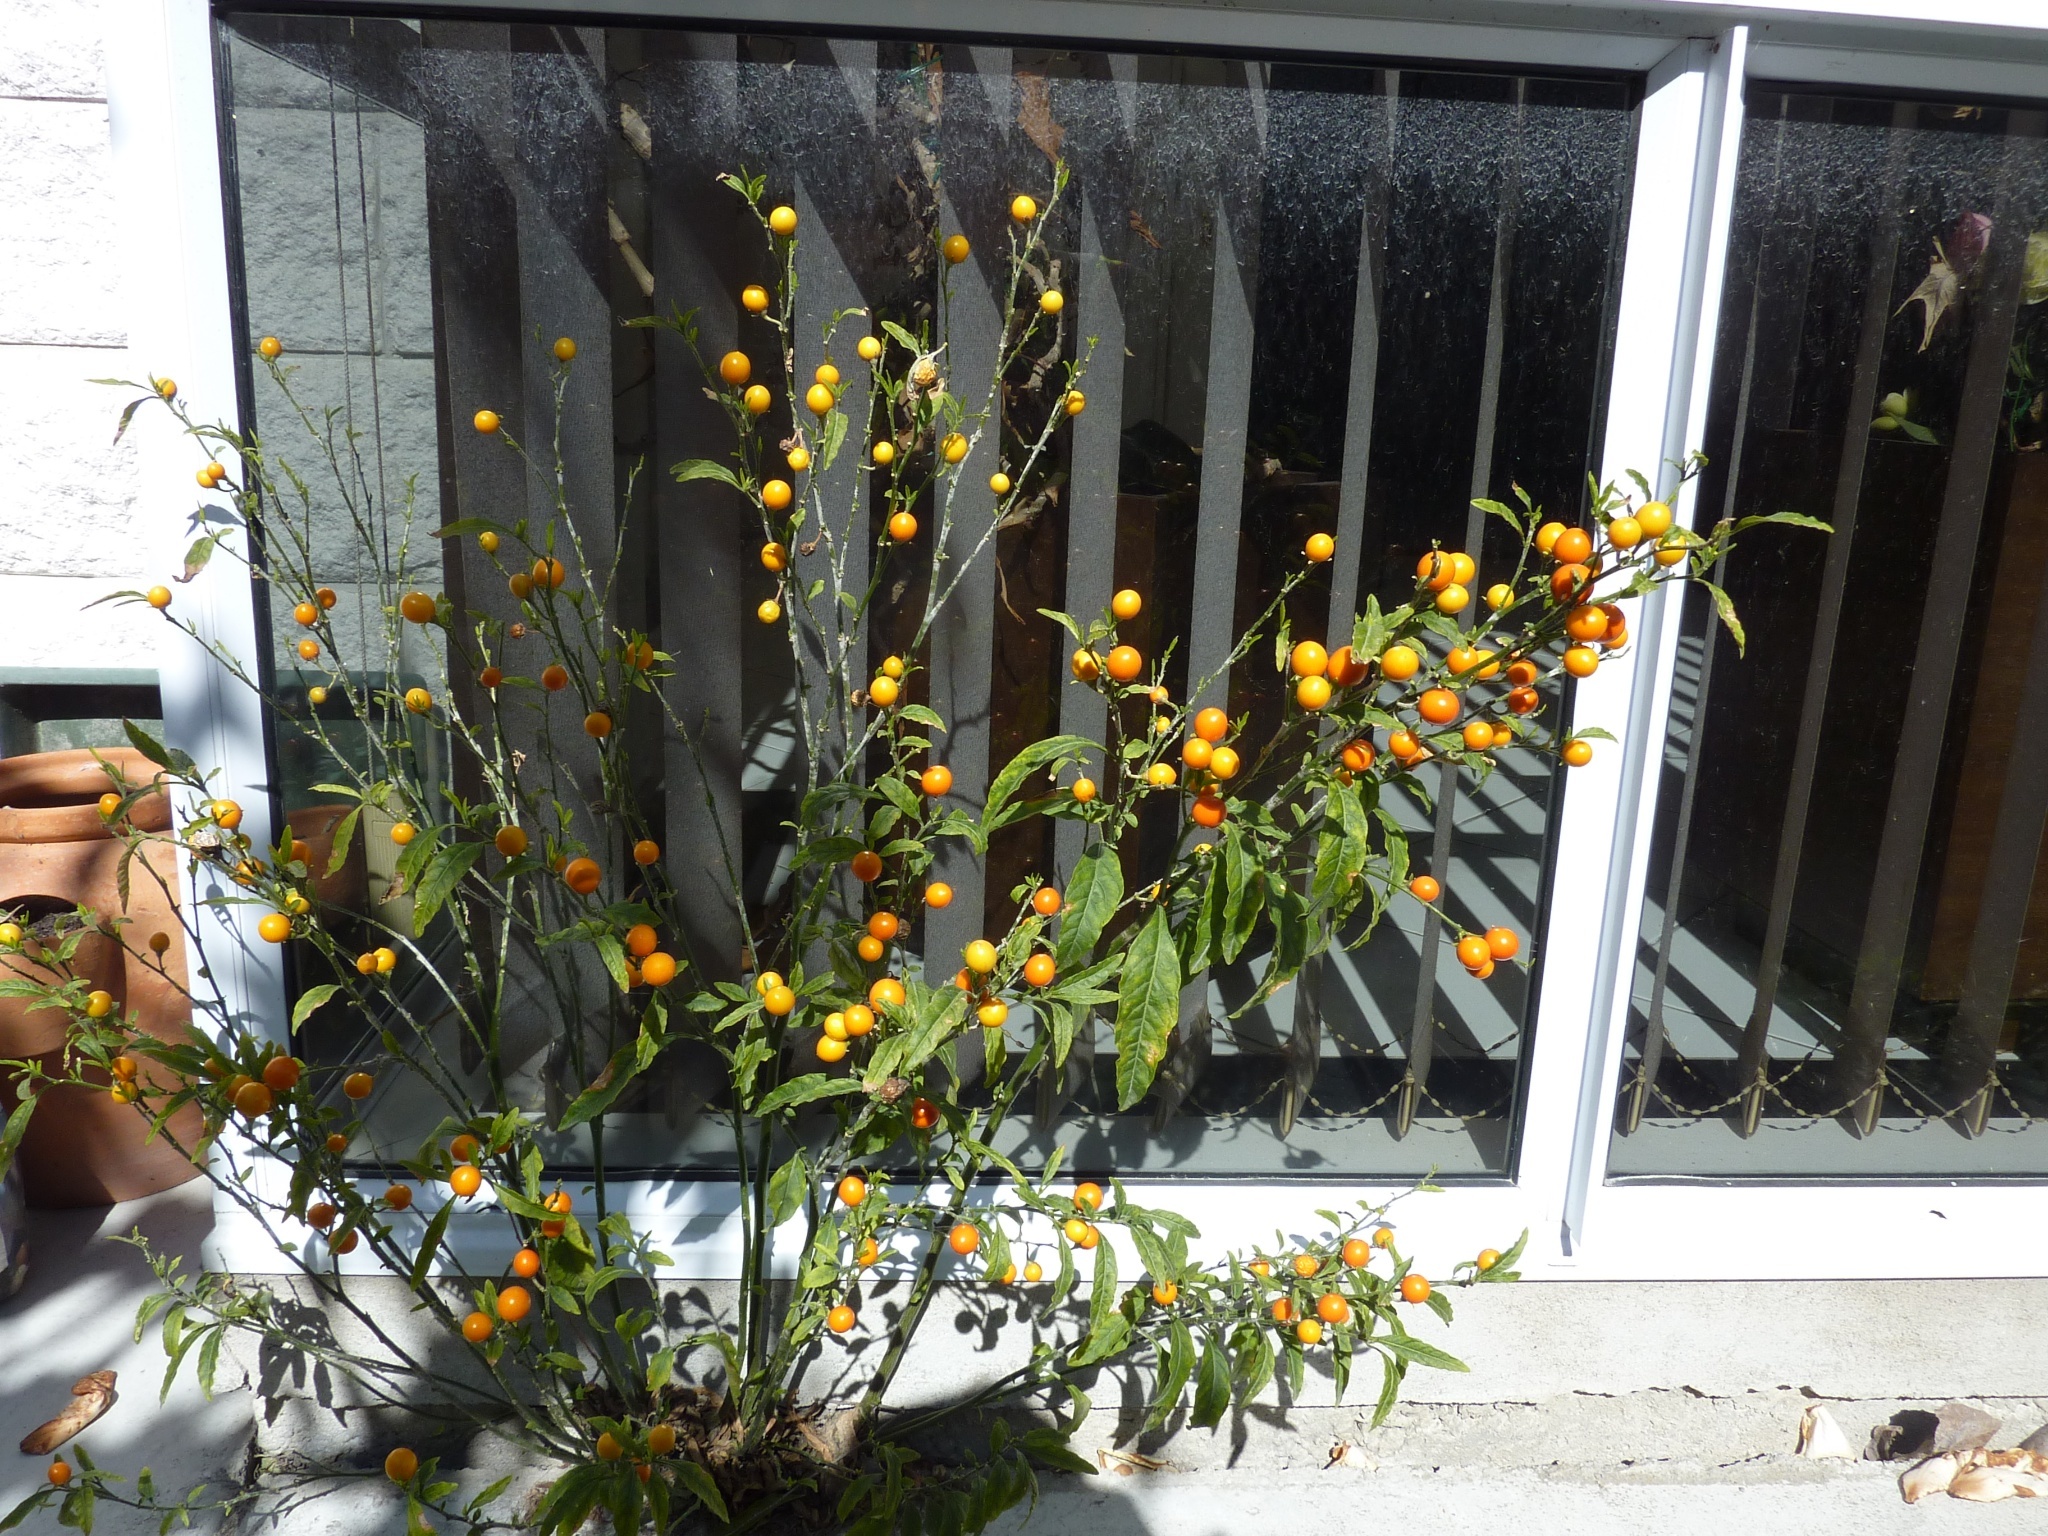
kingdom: Plantae
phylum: Tracheophyta
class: Magnoliopsida
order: Solanales
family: Solanaceae
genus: Solanum
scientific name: Solanum pseudocapsicum
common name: Jerusalem cherry
